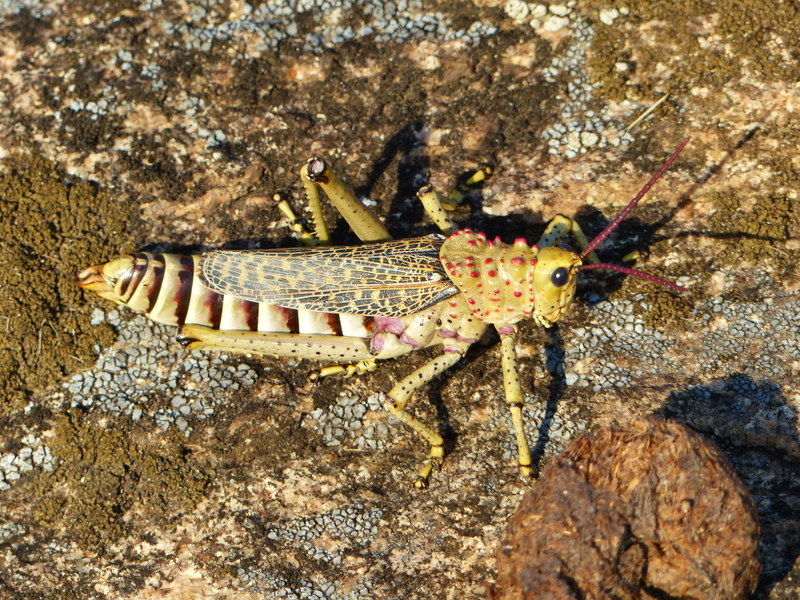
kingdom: Animalia
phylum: Arthropoda
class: Insecta
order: Orthoptera
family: Pyrgomorphidae
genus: Phymateus
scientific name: Phymateus baccatus
